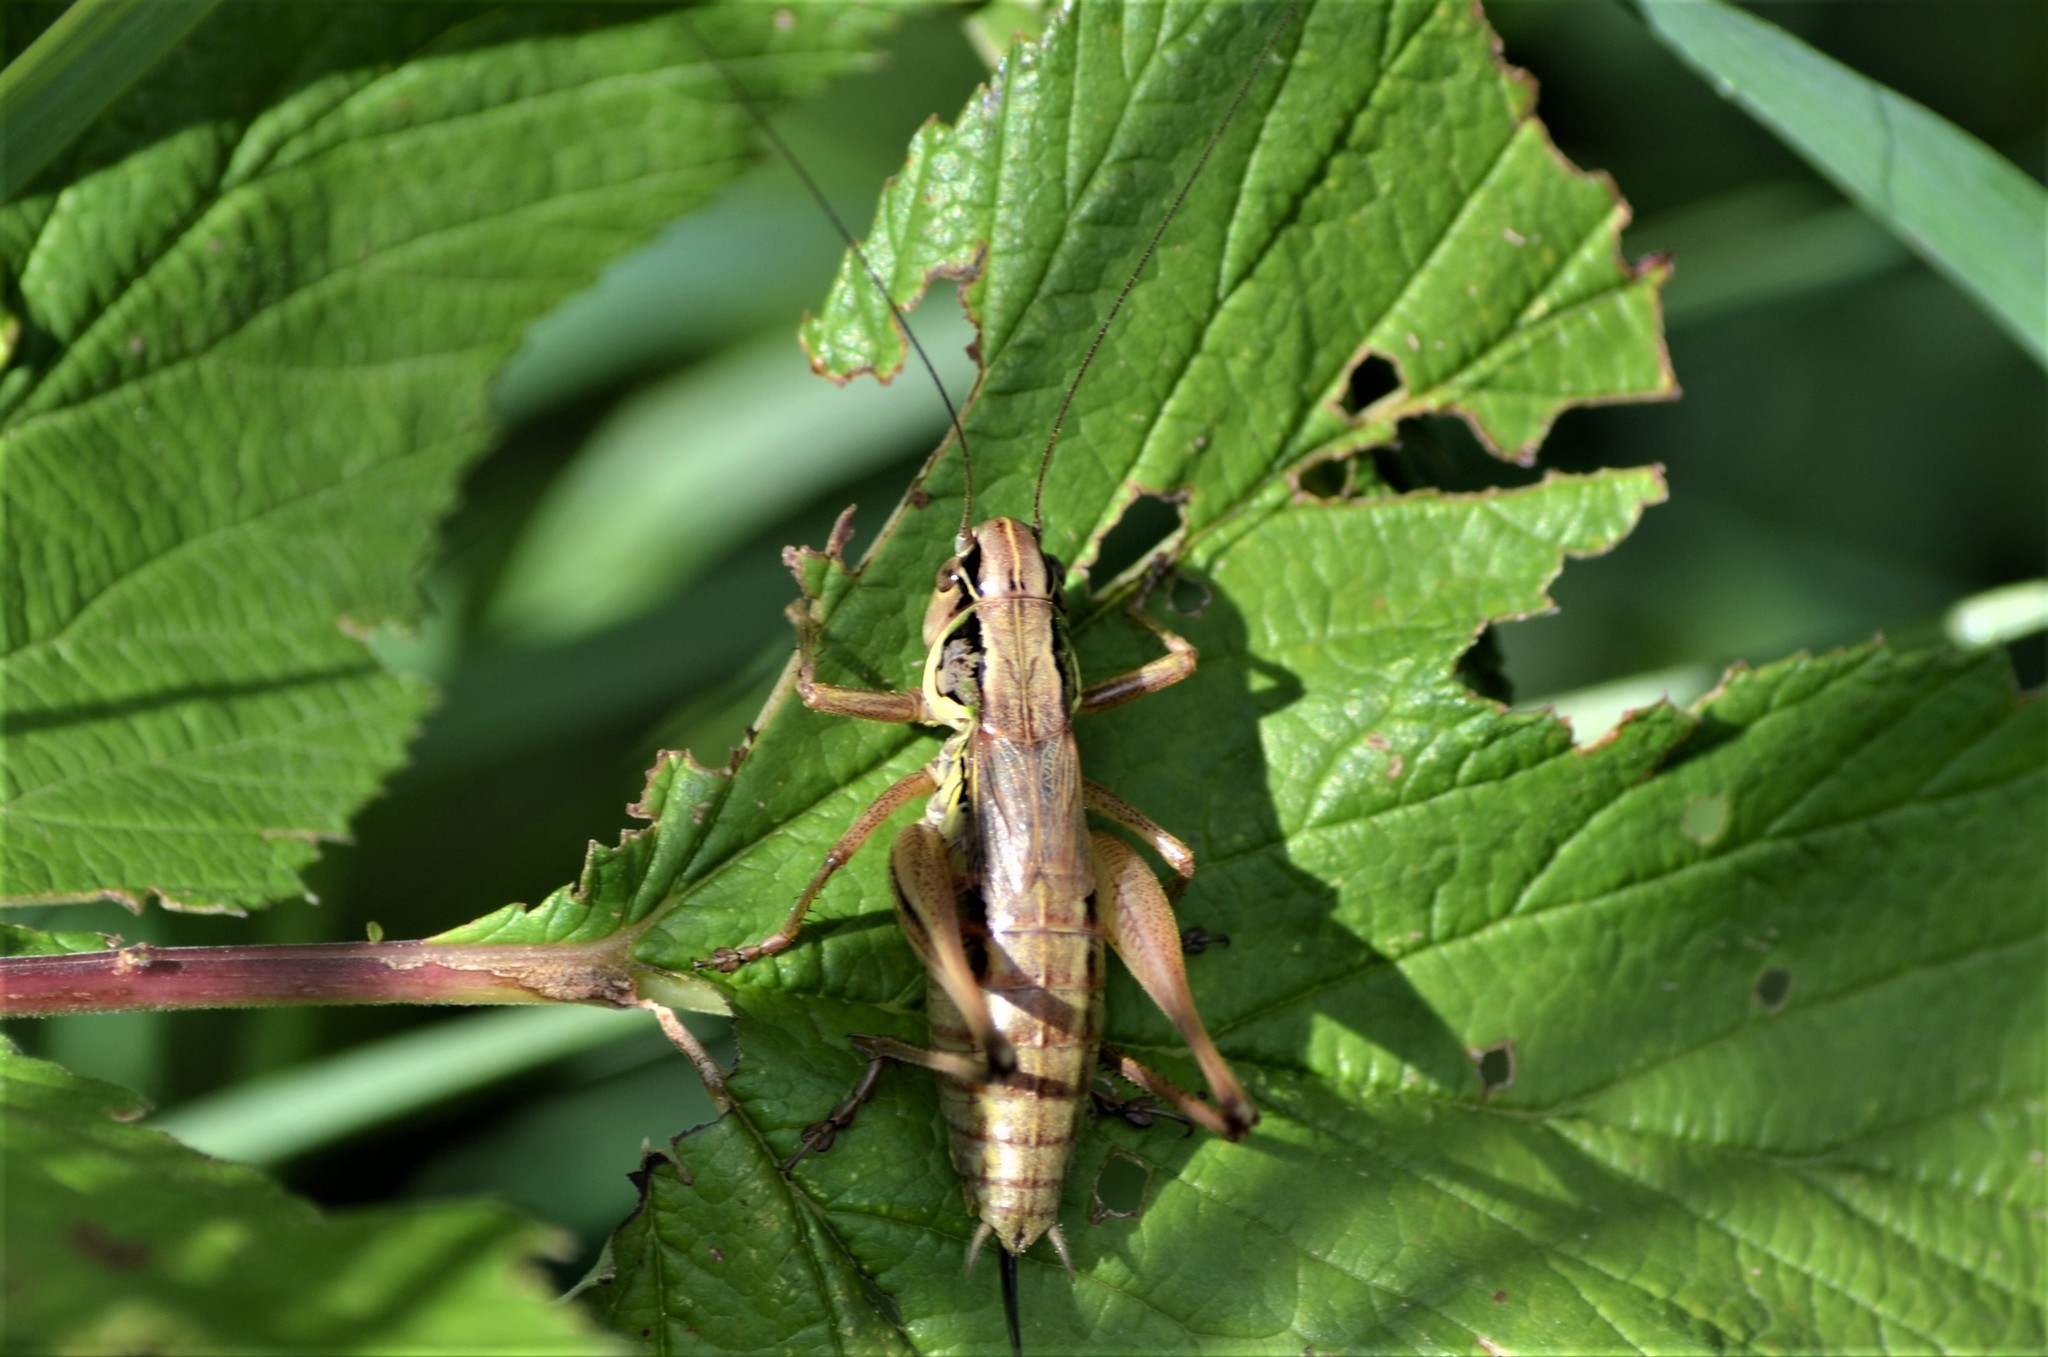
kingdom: Animalia
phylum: Arthropoda
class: Insecta
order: Orthoptera
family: Tettigoniidae
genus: Roeseliana
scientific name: Roeseliana roeselii
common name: Roesel's bush cricket
